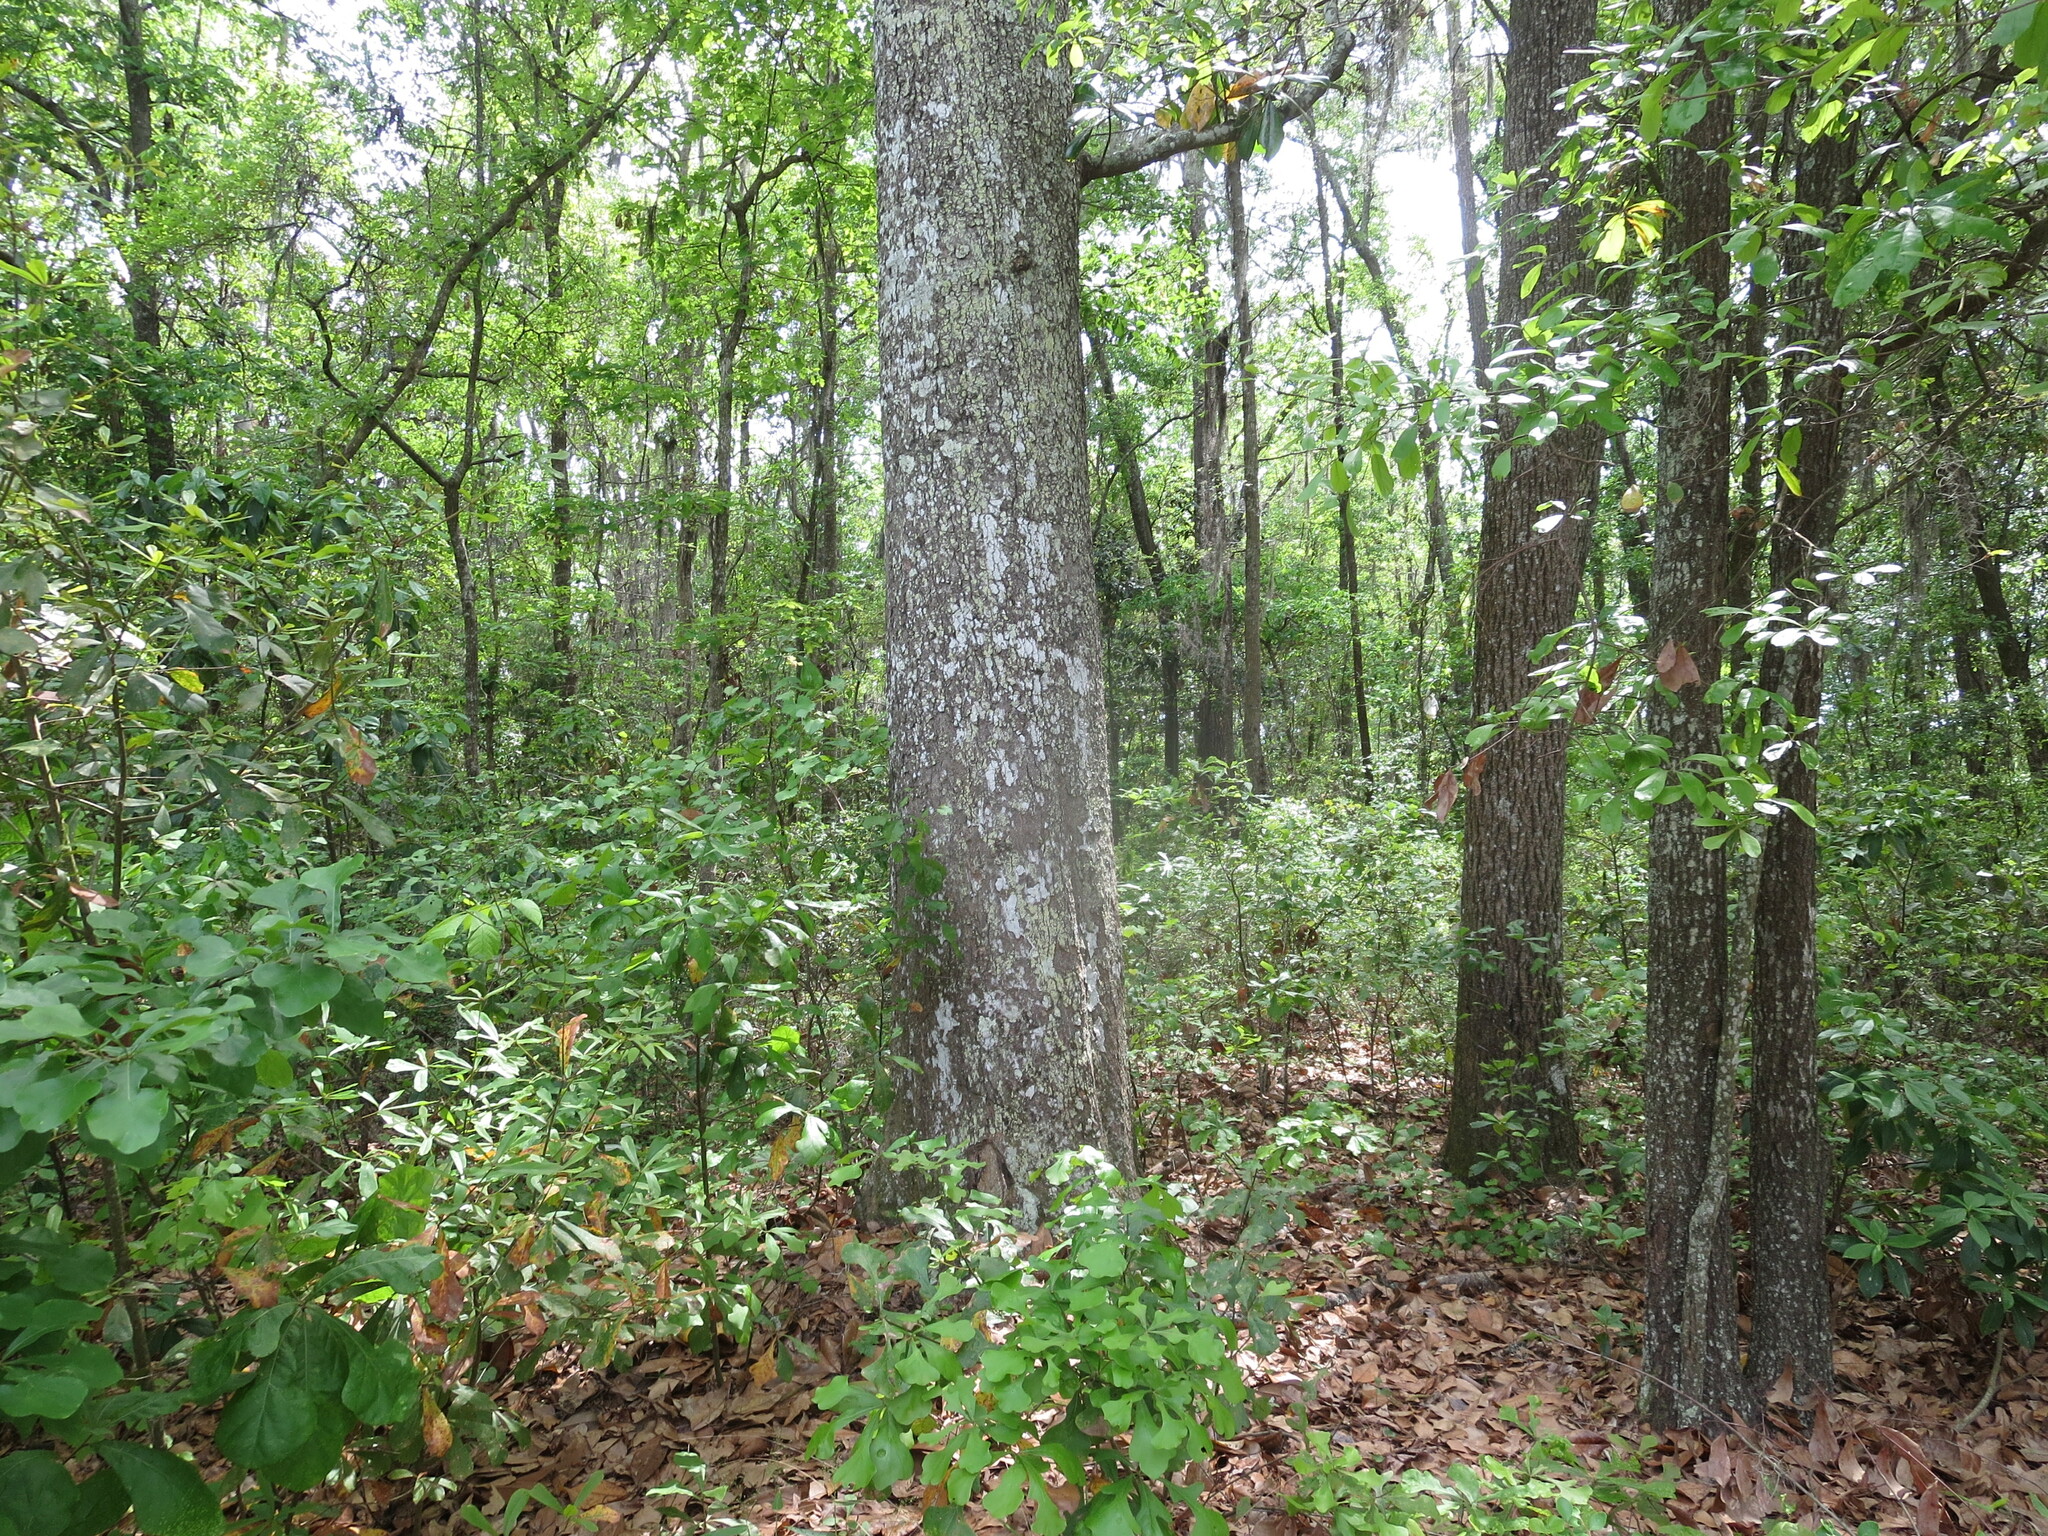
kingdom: Plantae
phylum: Tracheophyta
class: Magnoliopsida
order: Magnoliales
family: Magnoliaceae
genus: Magnolia
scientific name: Magnolia grandiflora
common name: Southern magnolia
